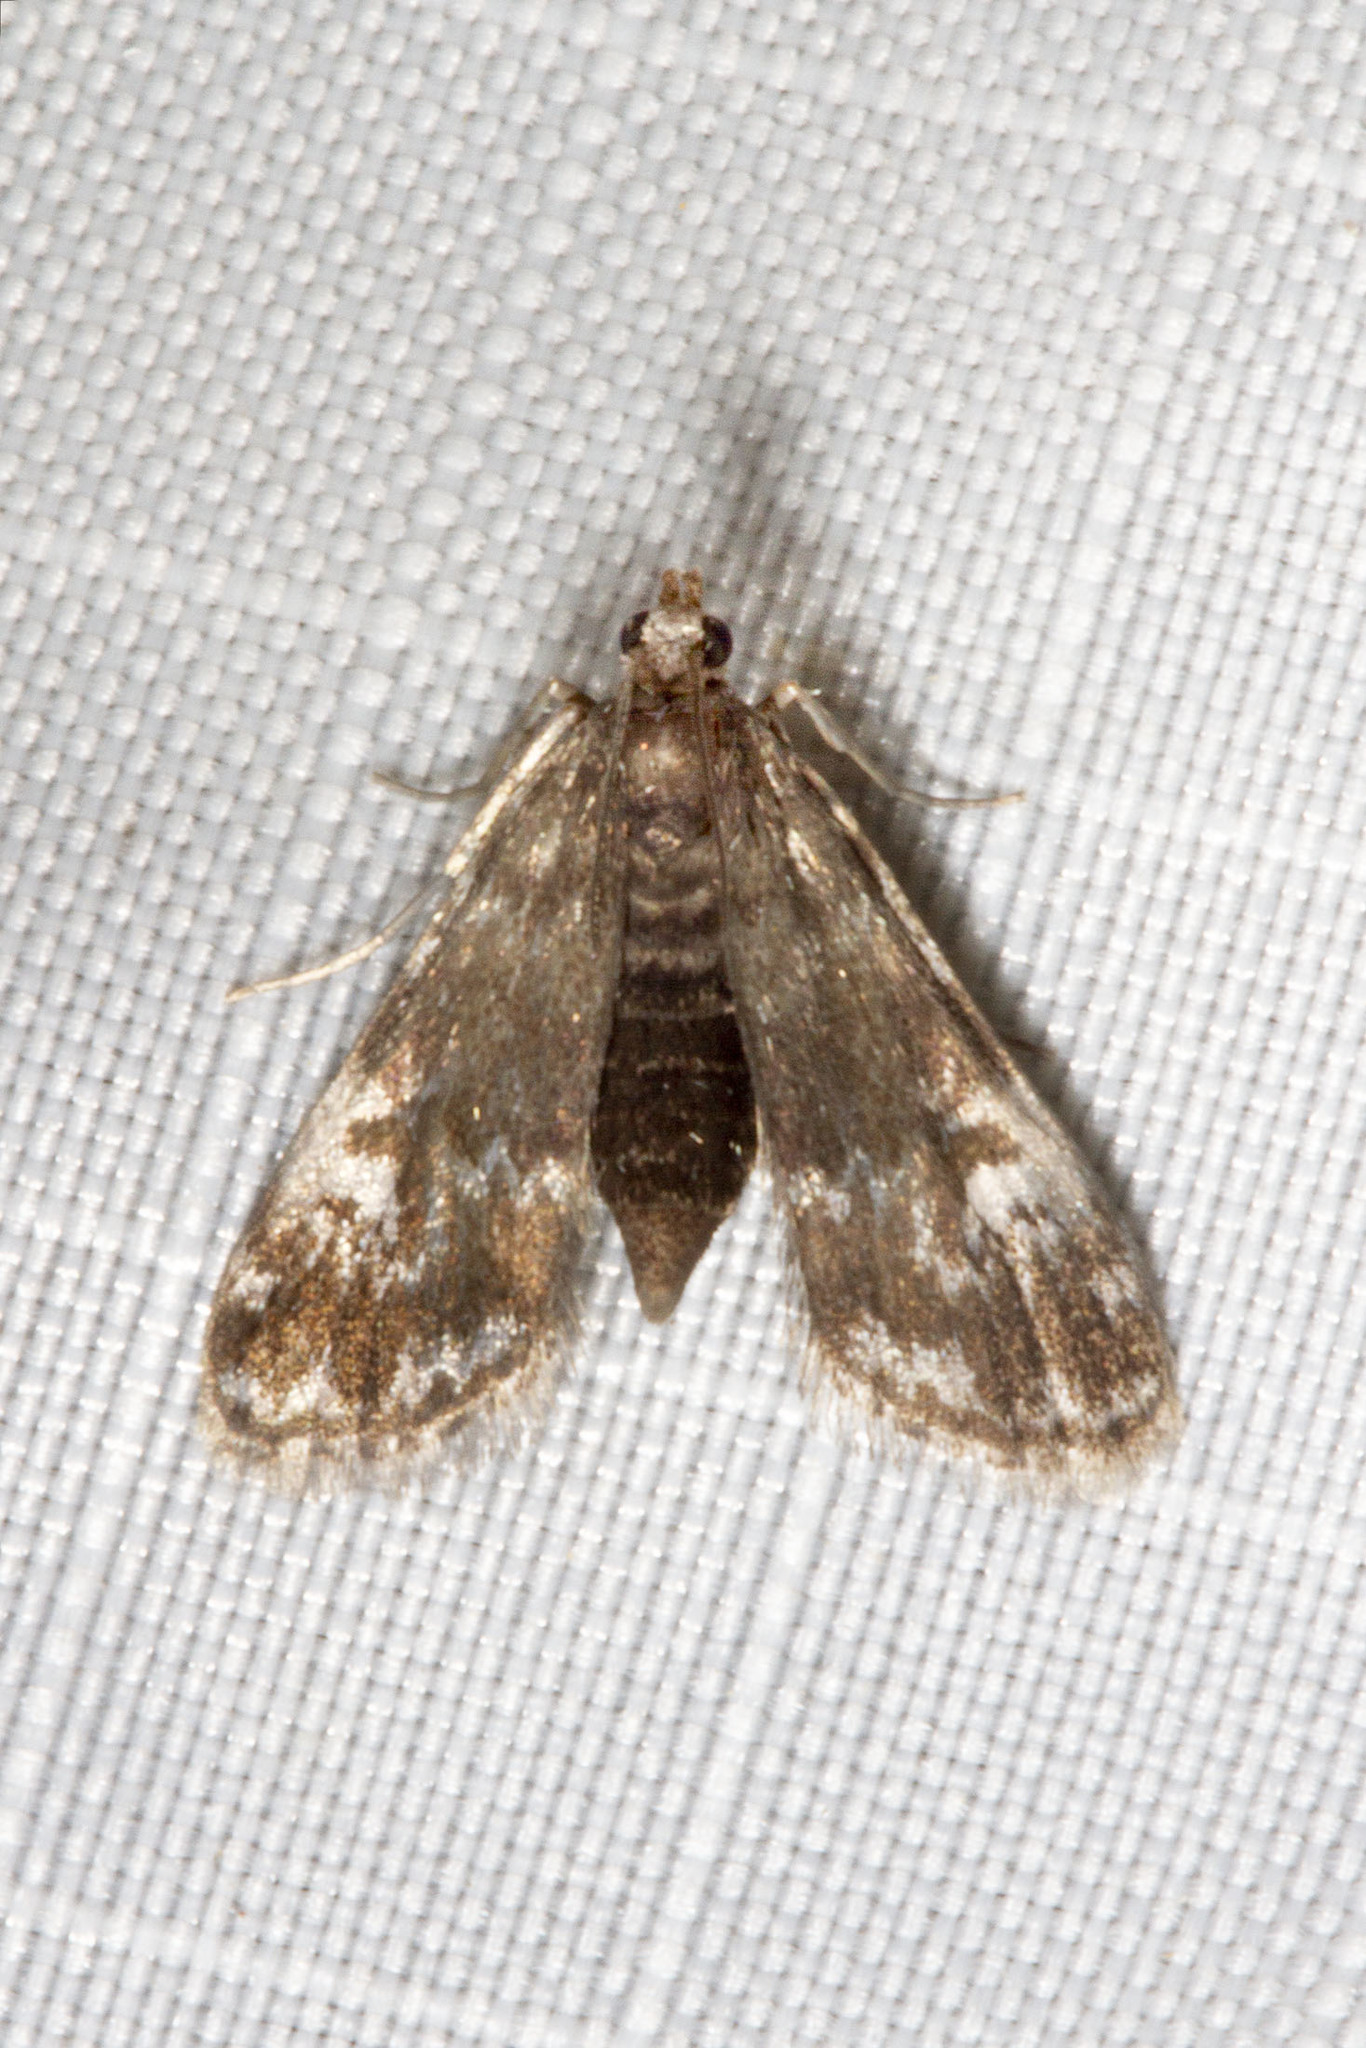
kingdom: Animalia
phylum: Arthropoda
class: Insecta
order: Lepidoptera
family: Crambidae
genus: Elophila
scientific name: Elophila obliteralis
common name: Waterlily leafcutter moth
